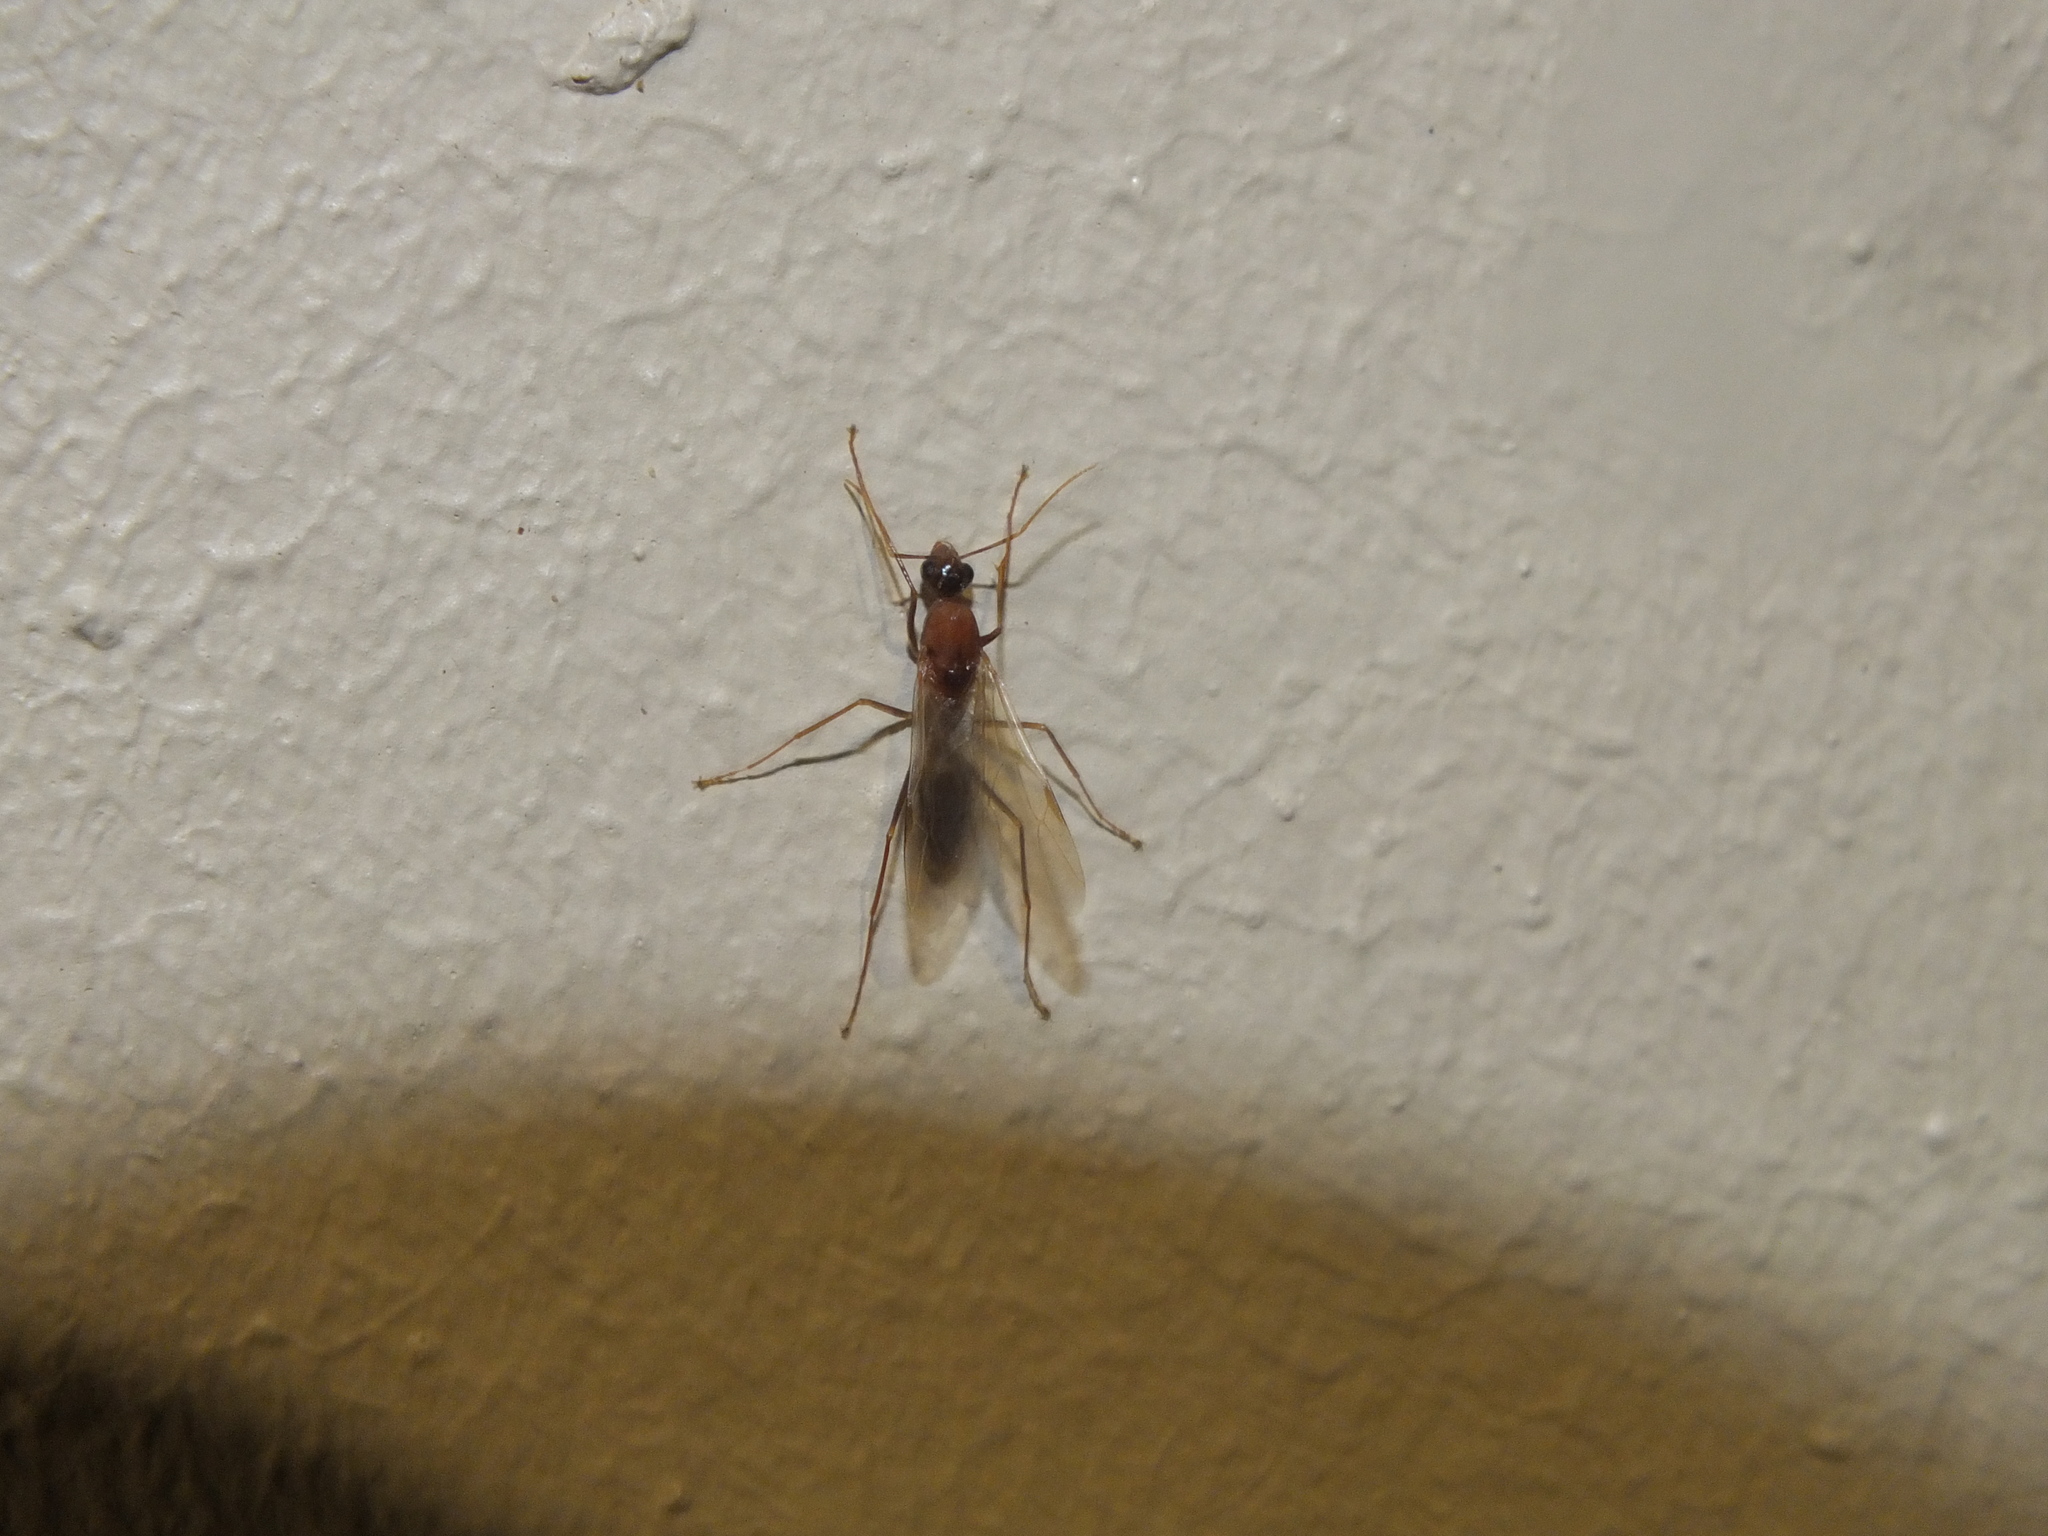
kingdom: Animalia
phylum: Arthropoda
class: Insecta
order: Hymenoptera
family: Formicidae
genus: Camponotus
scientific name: Camponotus variegatus
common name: Hawaiian carpenter ant
